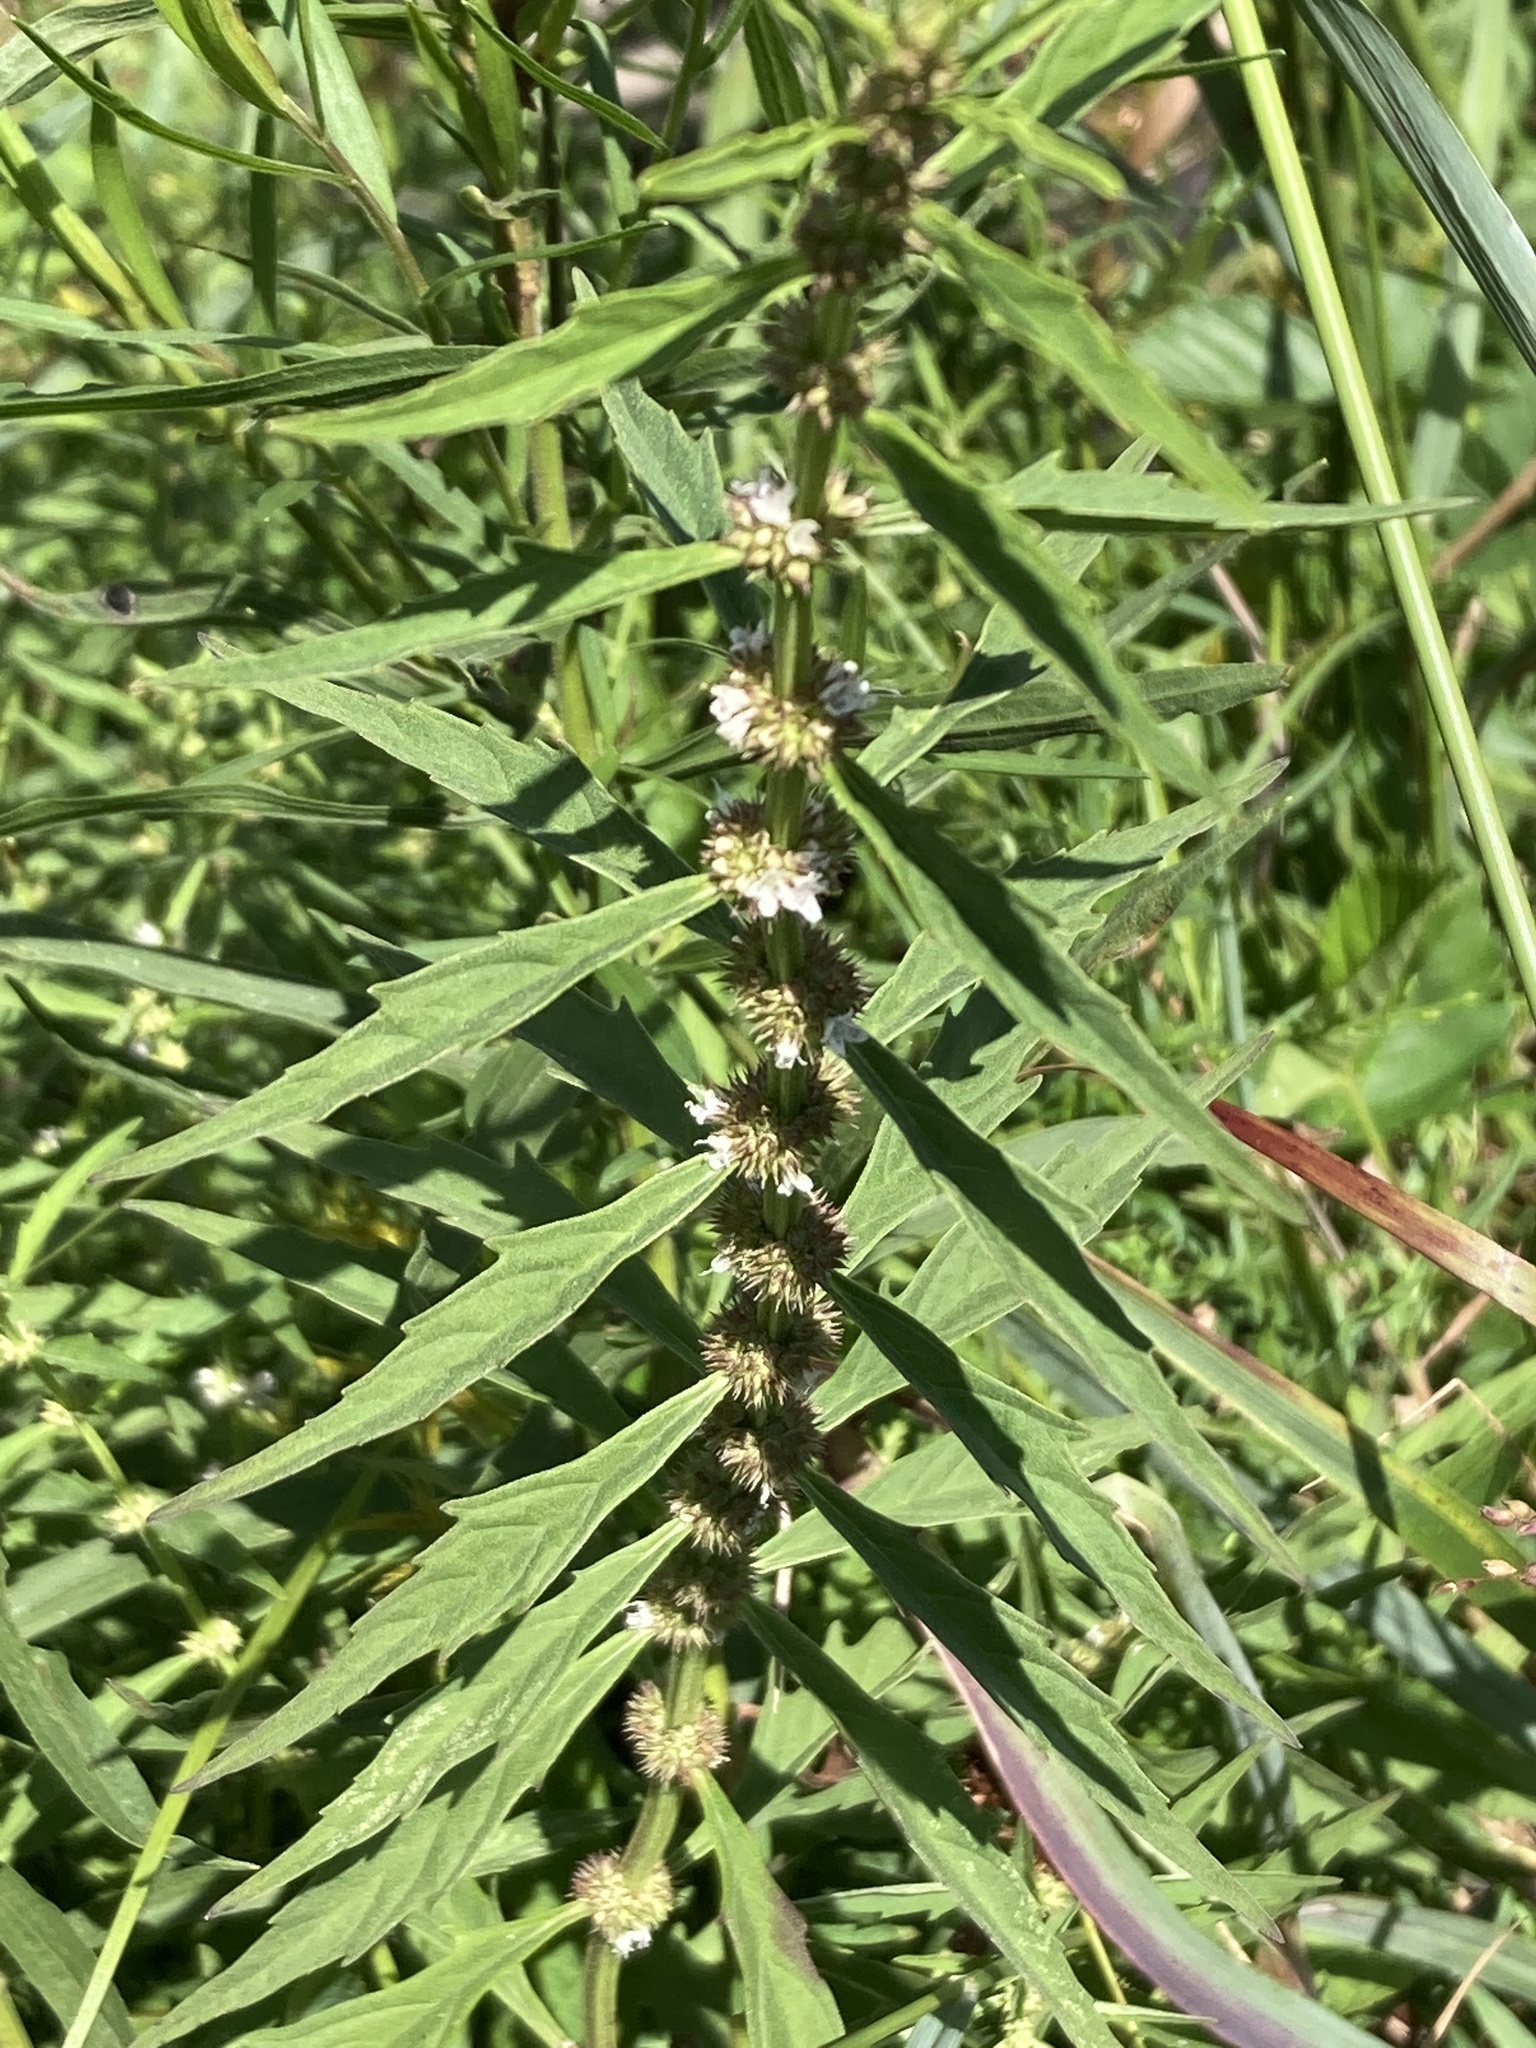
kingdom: Plantae
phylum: Tracheophyta
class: Magnoliopsida
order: Lamiales
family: Lamiaceae
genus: Lycopus
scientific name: Lycopus americanus
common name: American bugleweed
